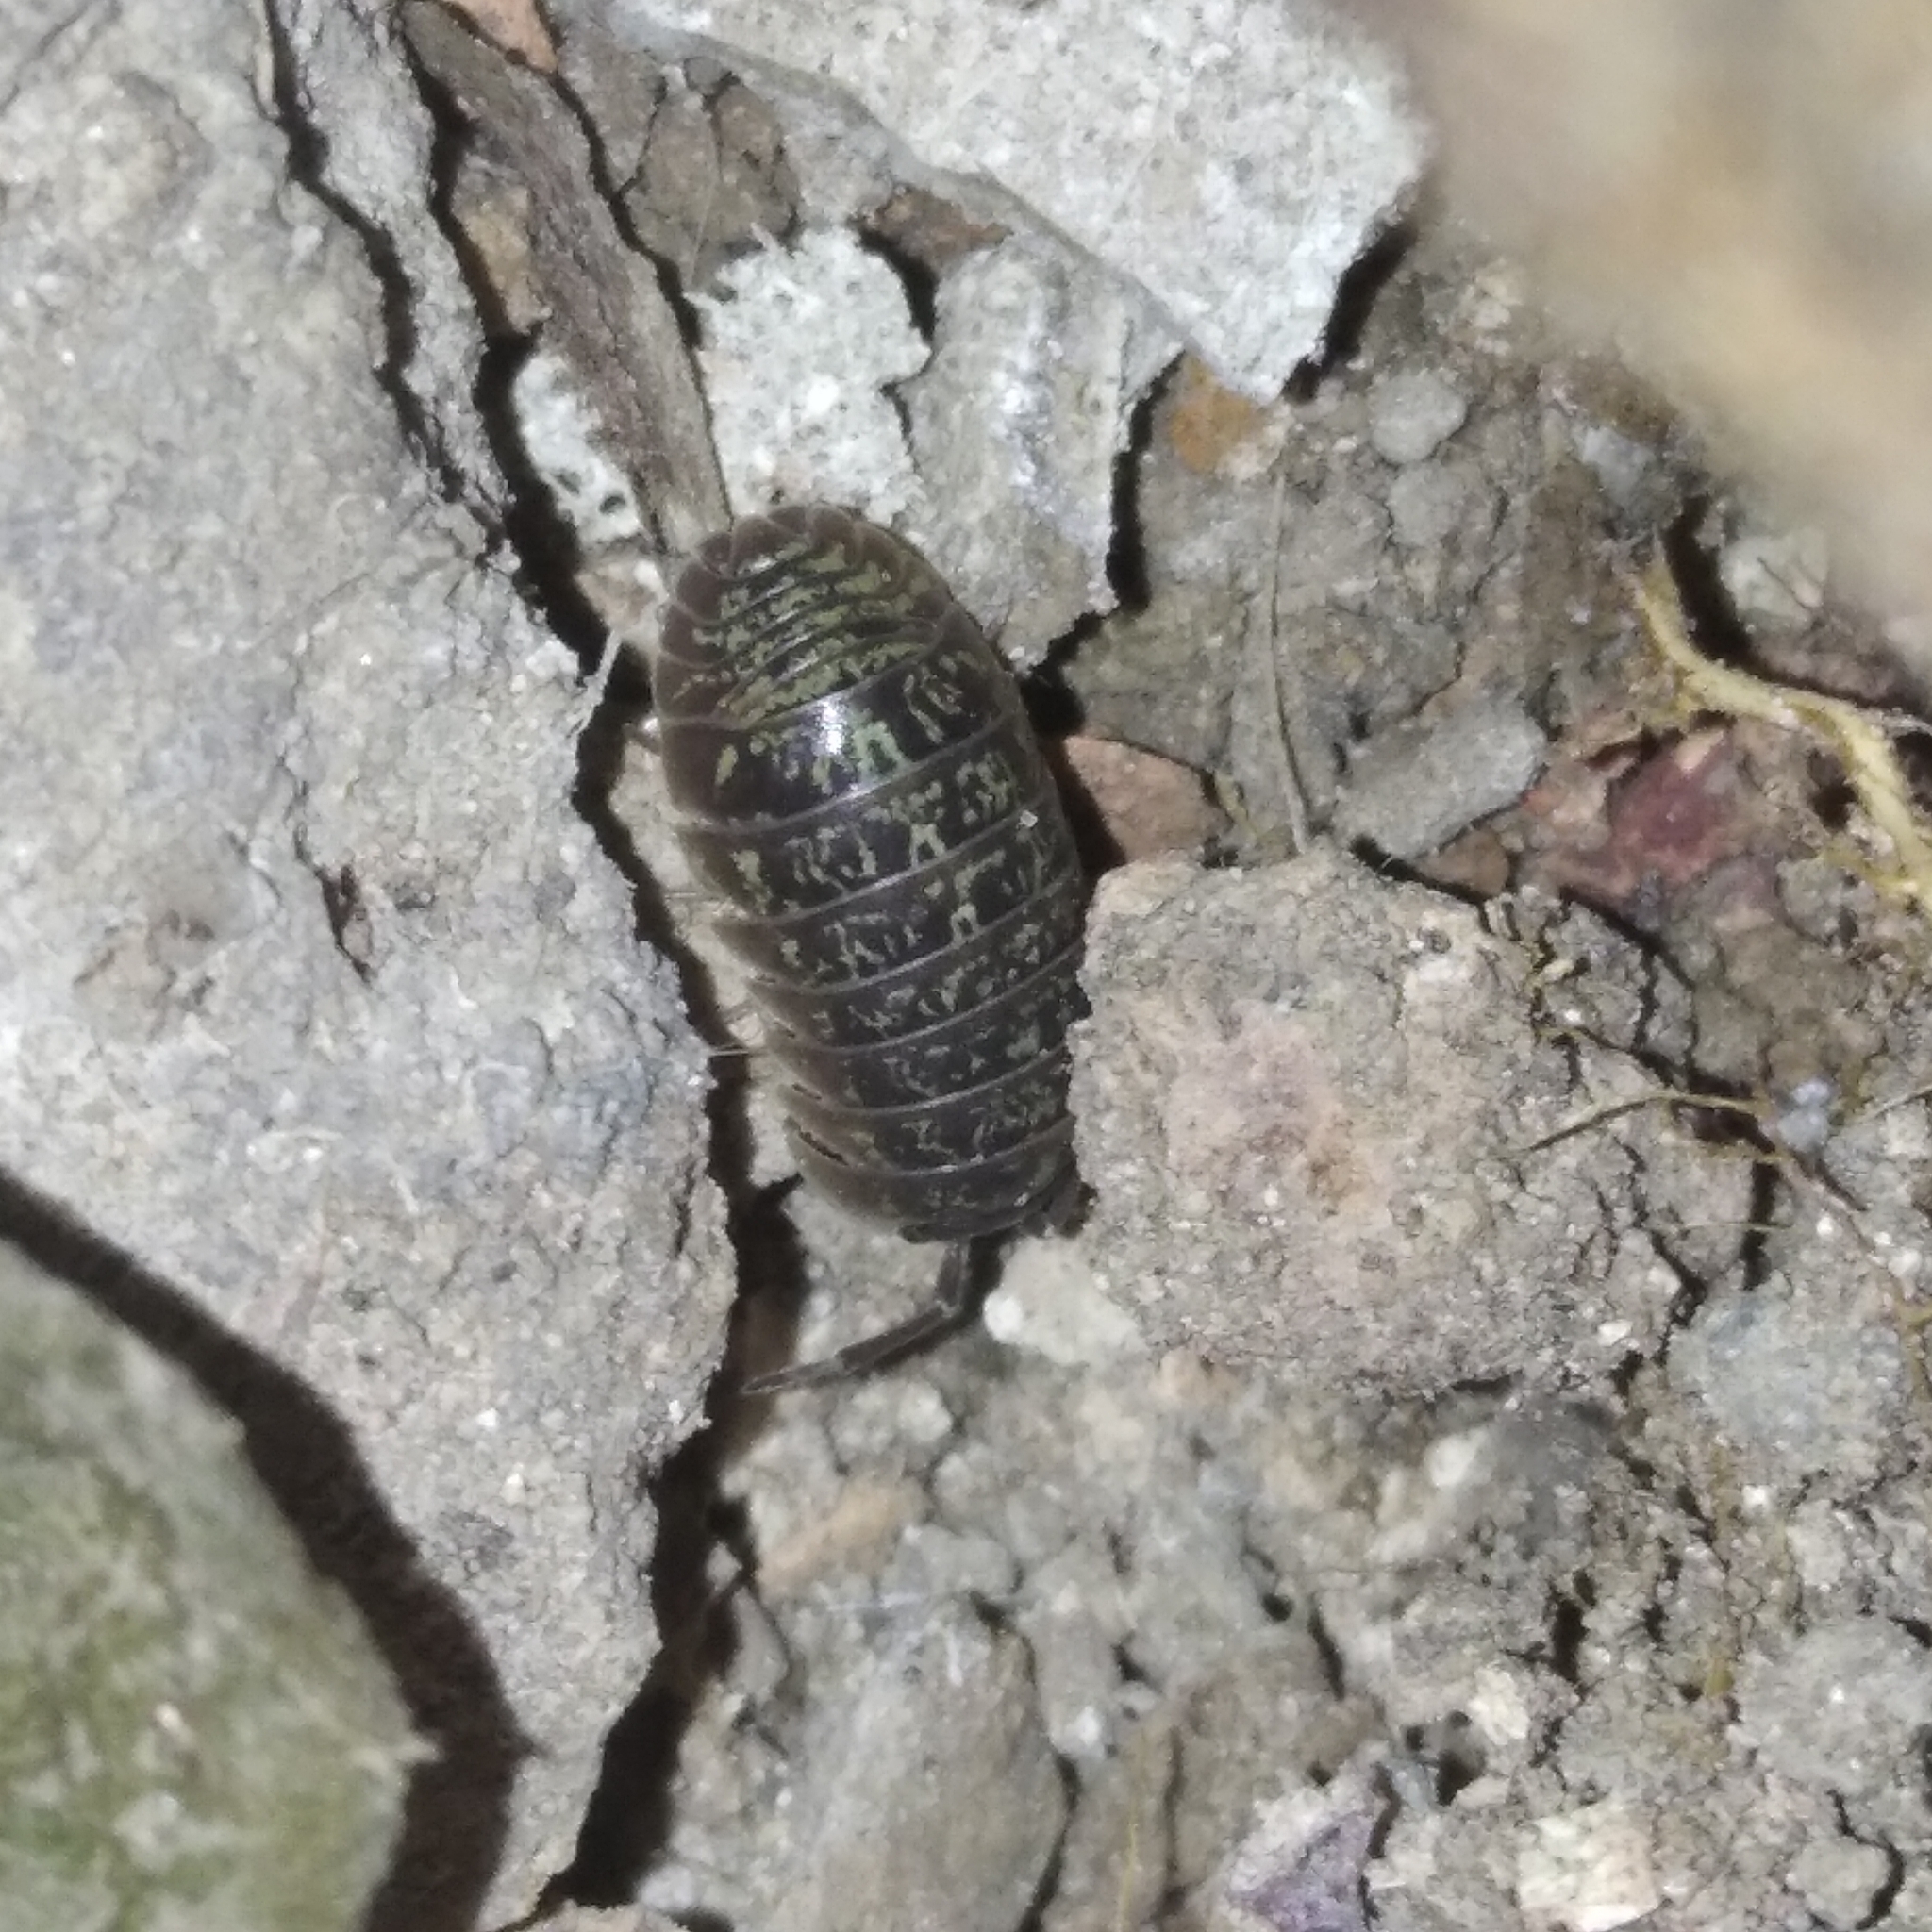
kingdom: Animalia
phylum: Arthropoda
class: Malacostraca
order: Isopoda
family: Armadillidiidae
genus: Armadillidium
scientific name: Armadillidium versicolor
